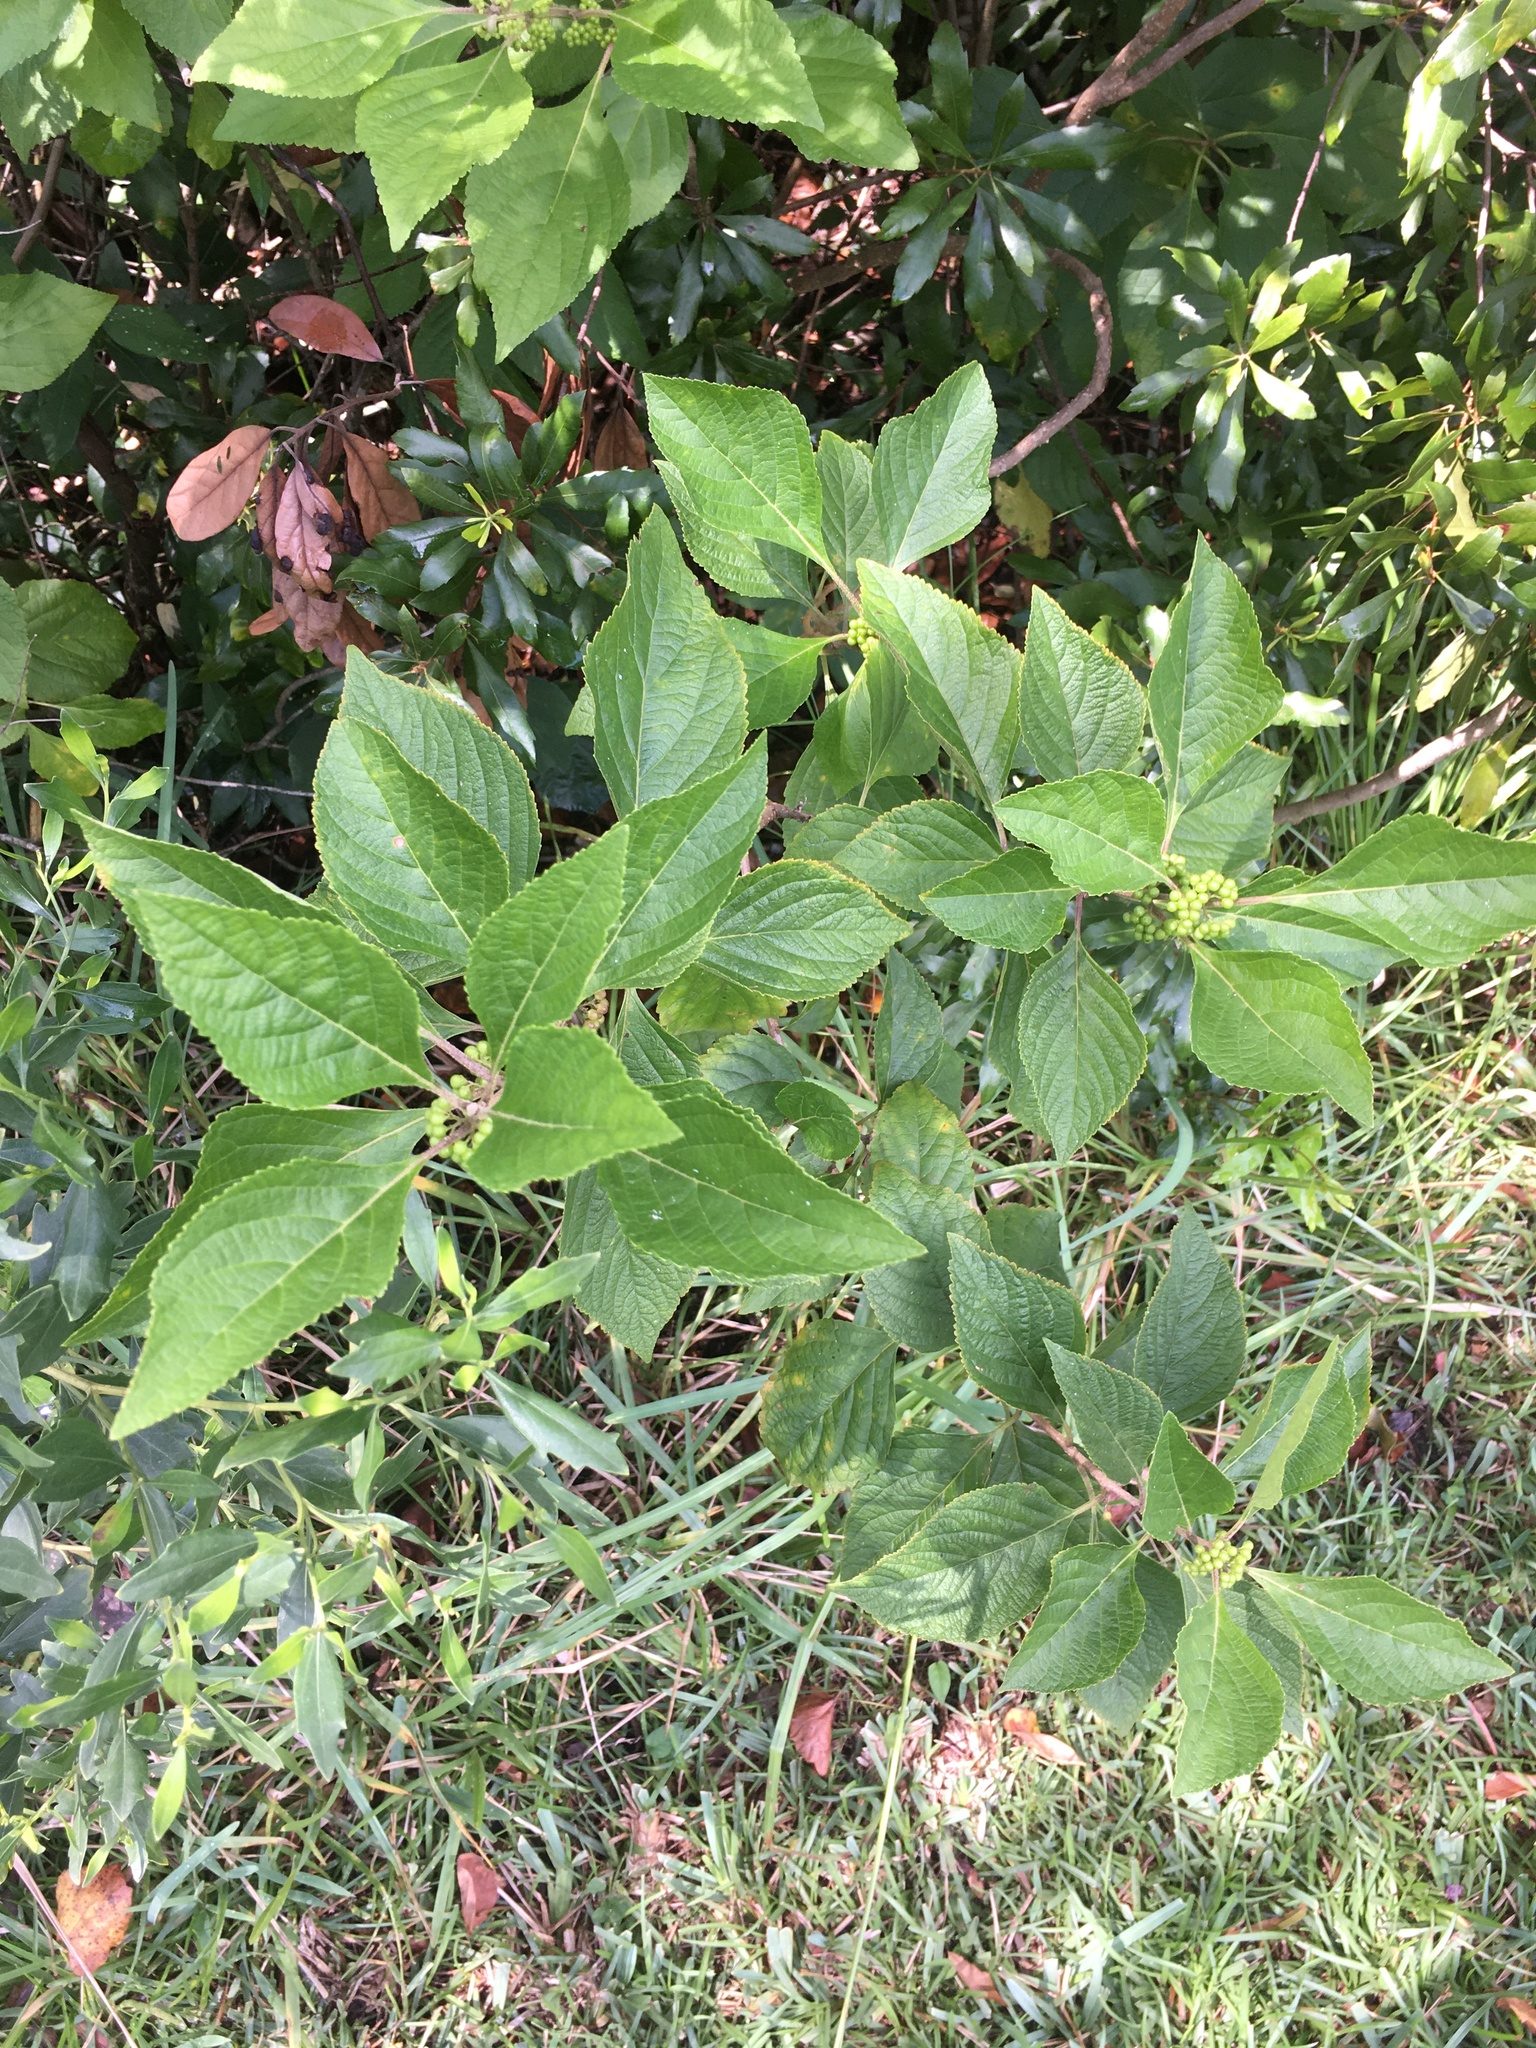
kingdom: Plantae
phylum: Tracheophyta
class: Magnoliopsida
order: Lamiales
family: Lamiaceae
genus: Callicarpa
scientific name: Callicarpa americana
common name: American beautyberry
